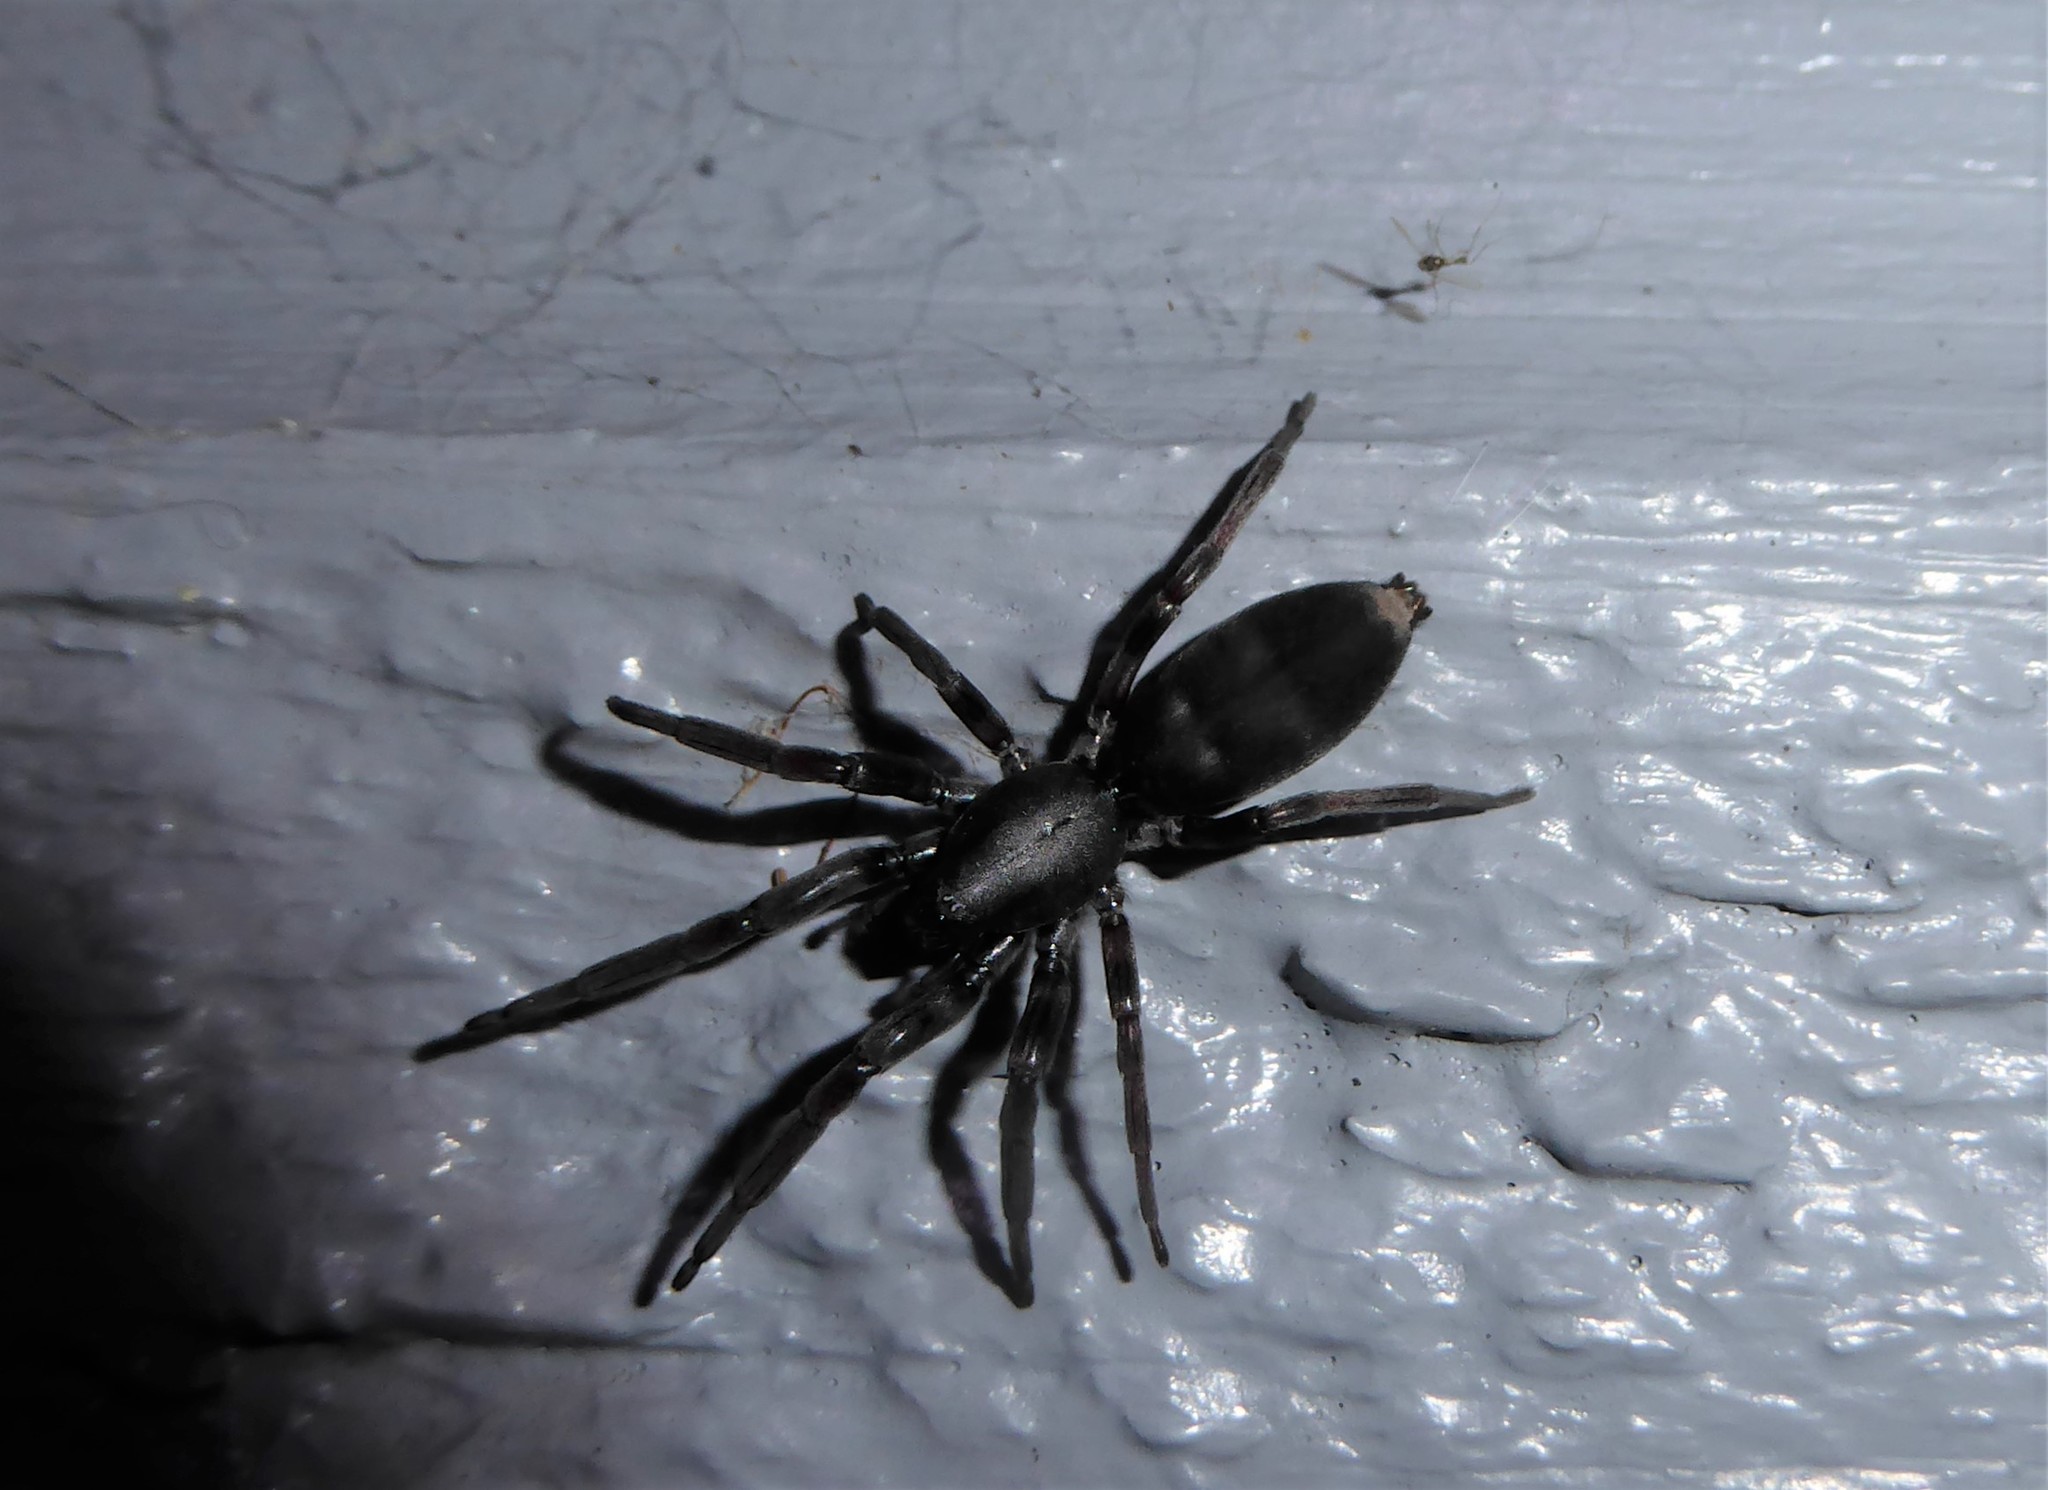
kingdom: Animalia
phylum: Arthropoda
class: Arachnida
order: Araneae
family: Lamponidae
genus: Lampona
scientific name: Lampona cylindrata
